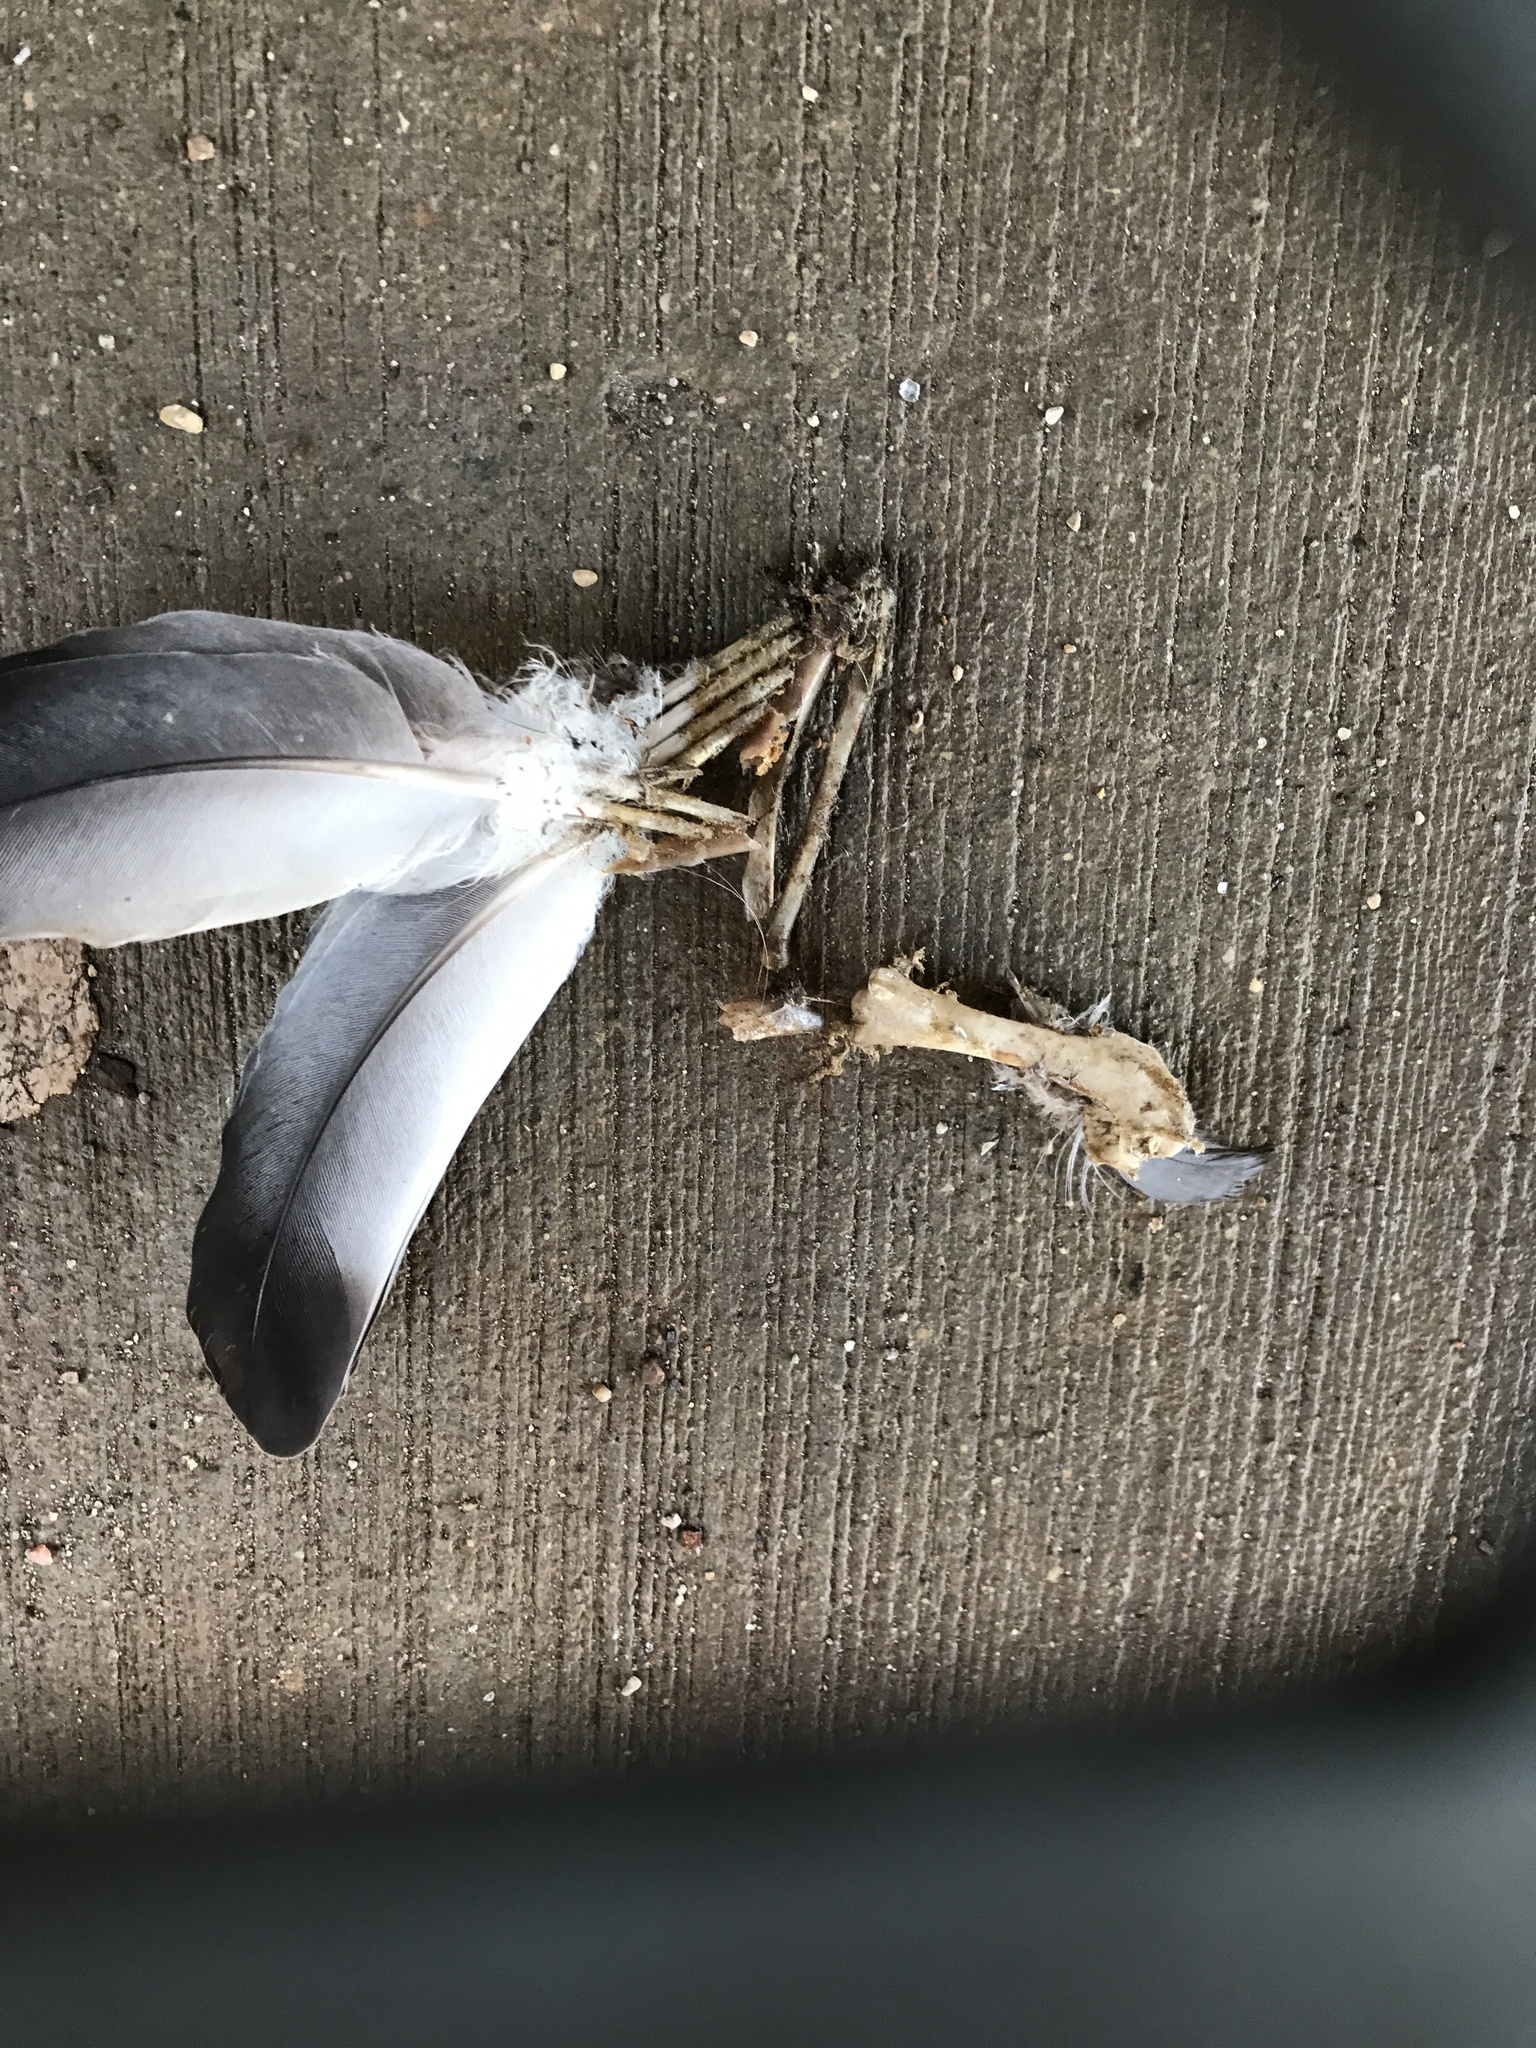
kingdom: Animalia
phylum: Chordata
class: Aves
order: Columbiformes
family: Columbidae
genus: Columba
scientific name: Columba livia
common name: Rock pigeon
